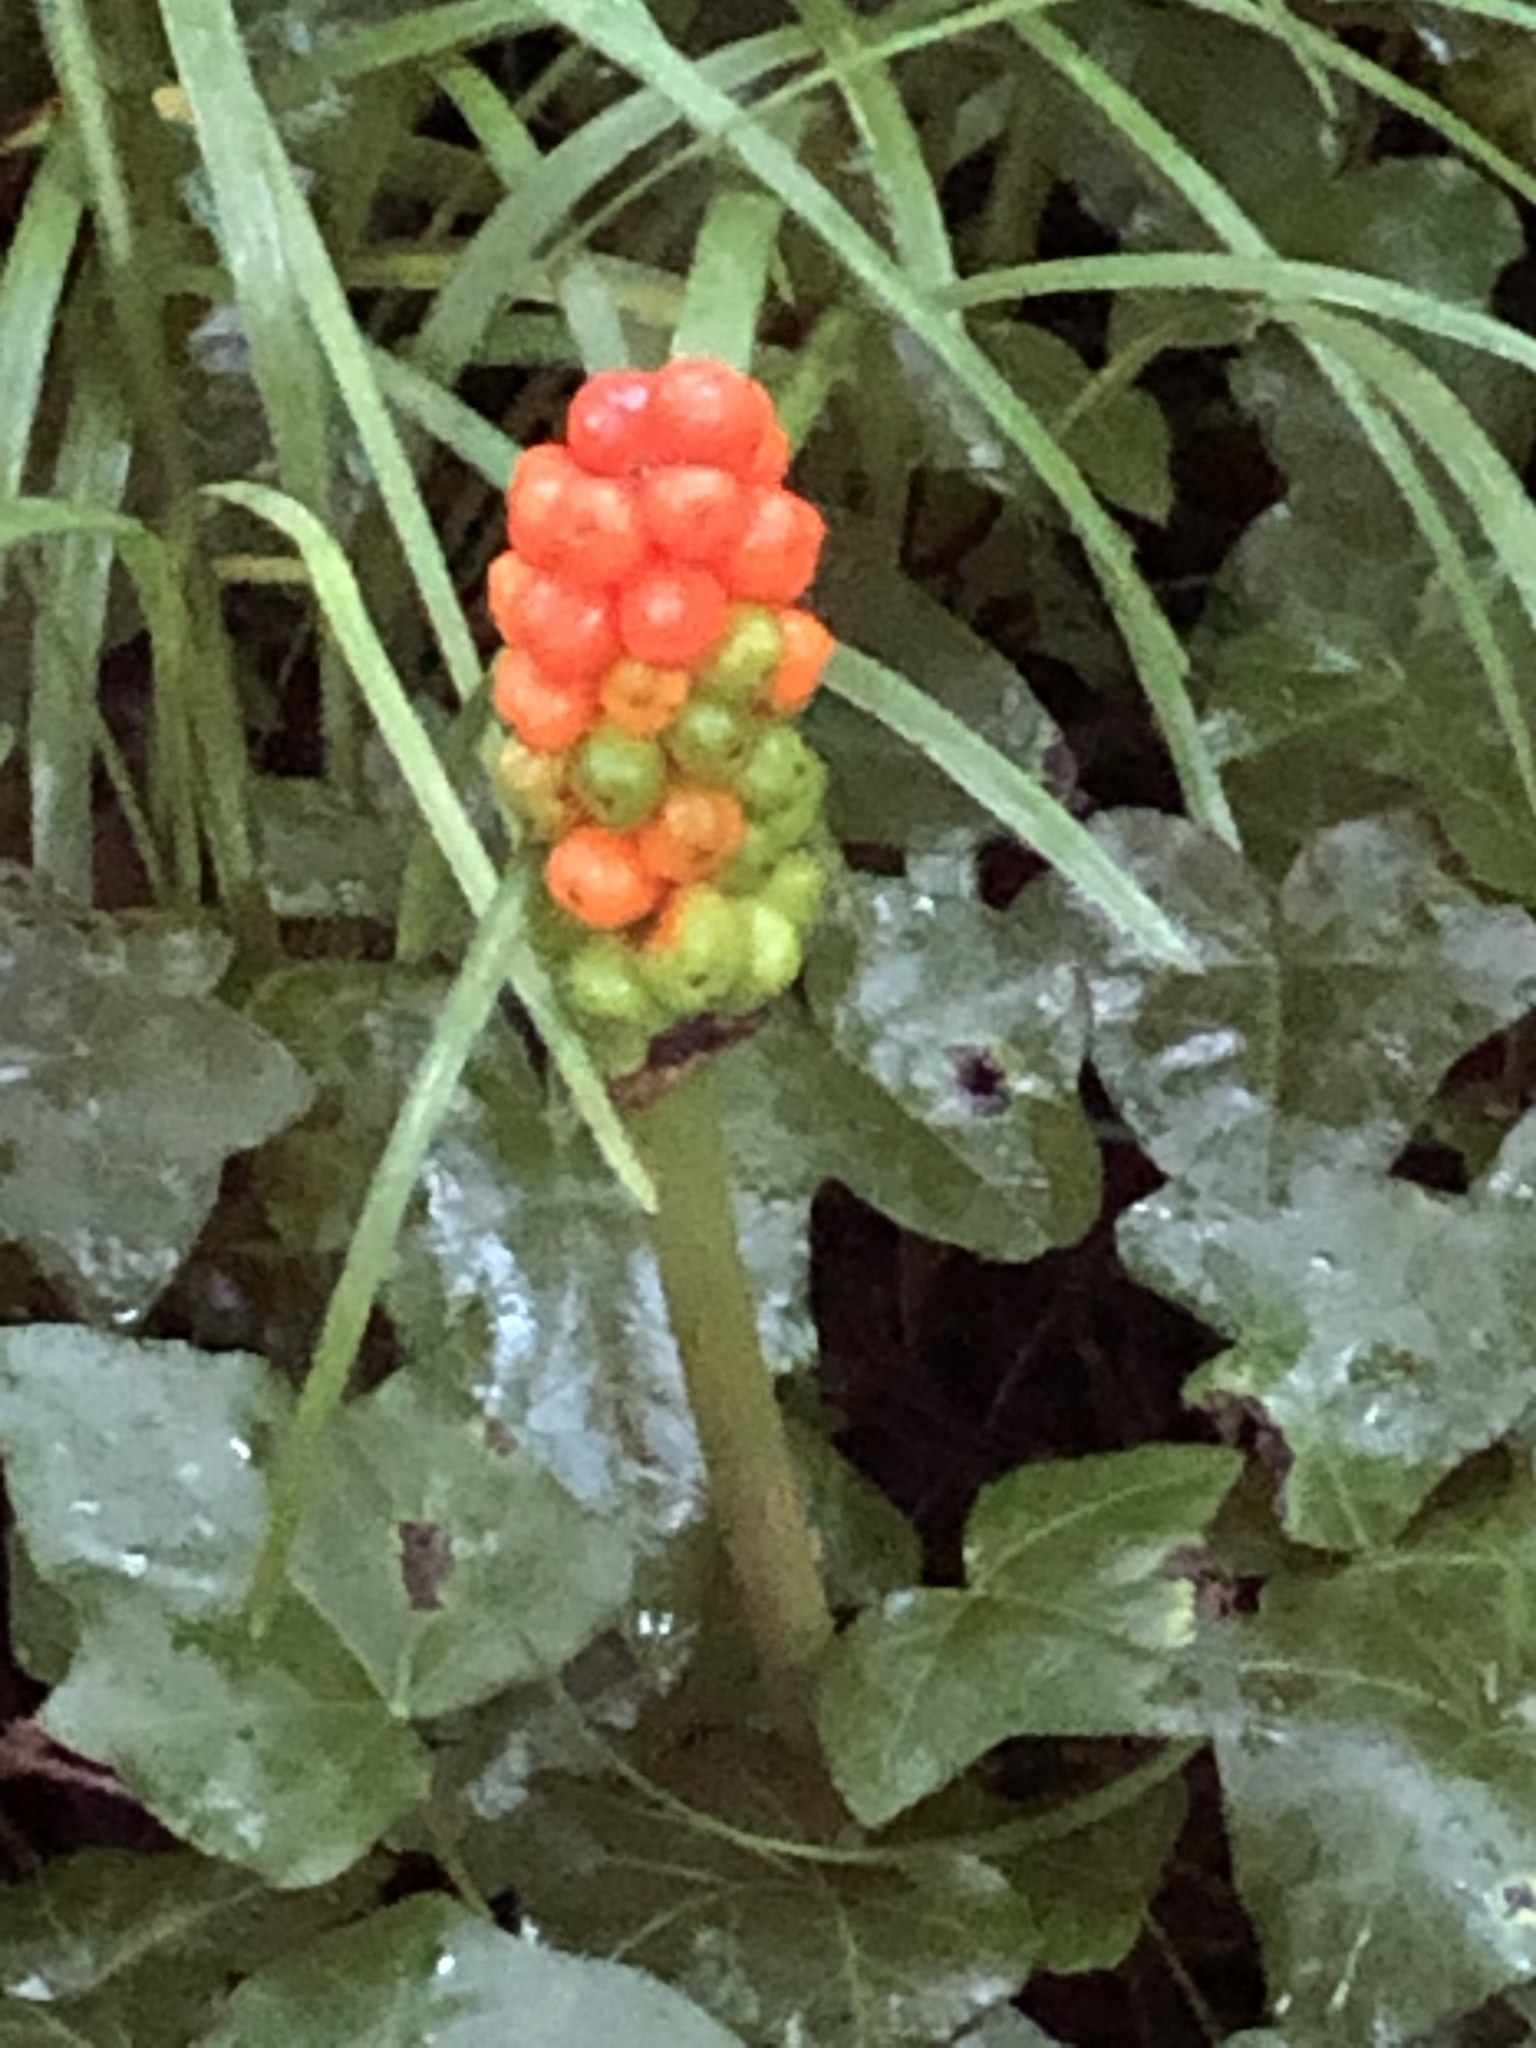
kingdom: Plantae
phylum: Tracheophyta
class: Liliopsida
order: Alismatales
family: Araceae
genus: Arum
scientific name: Arum italicum
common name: Italian lords-and-ladies
